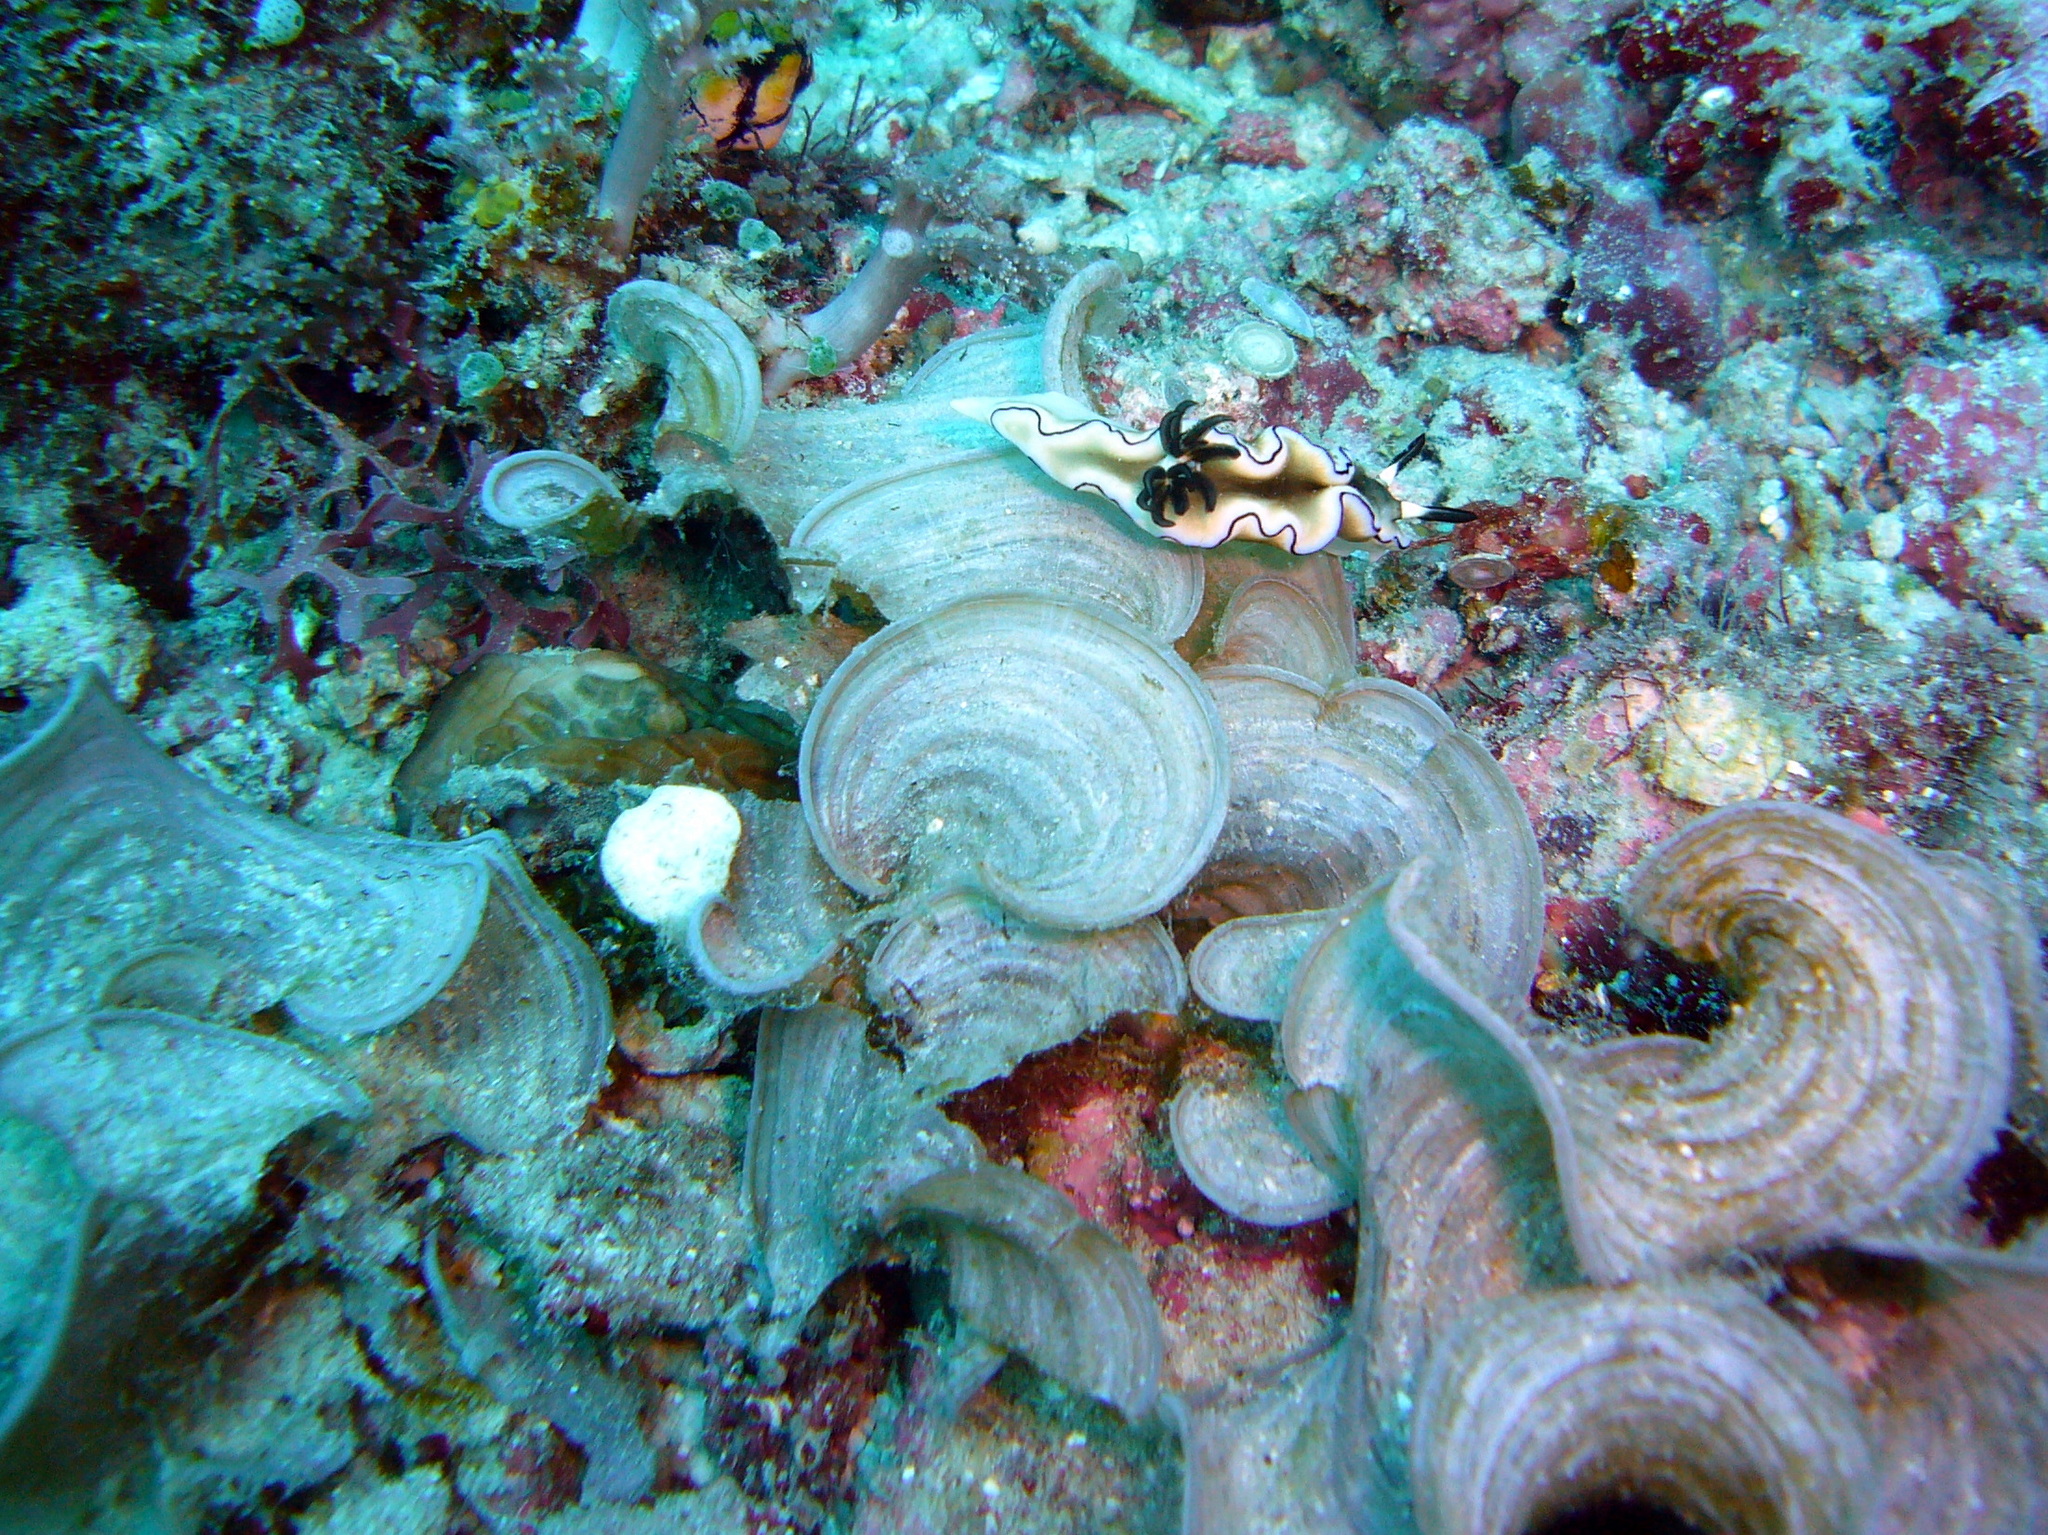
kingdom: Animalia
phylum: Mollusca
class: Gastropoda
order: Nudibranchia
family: Chromodorididae
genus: Doriprismatica
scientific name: Doriprismatica atromarginata
